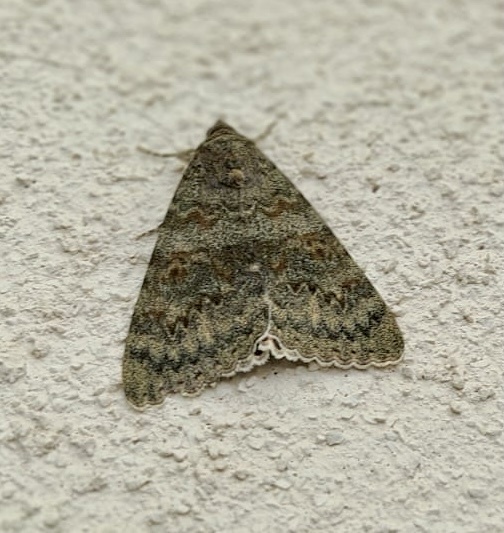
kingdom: Animalia
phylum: Arthropoda
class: Insecta
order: Lepidoptera
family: Erebidae
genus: Catocala
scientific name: Catocala elocata
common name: French red underwing
